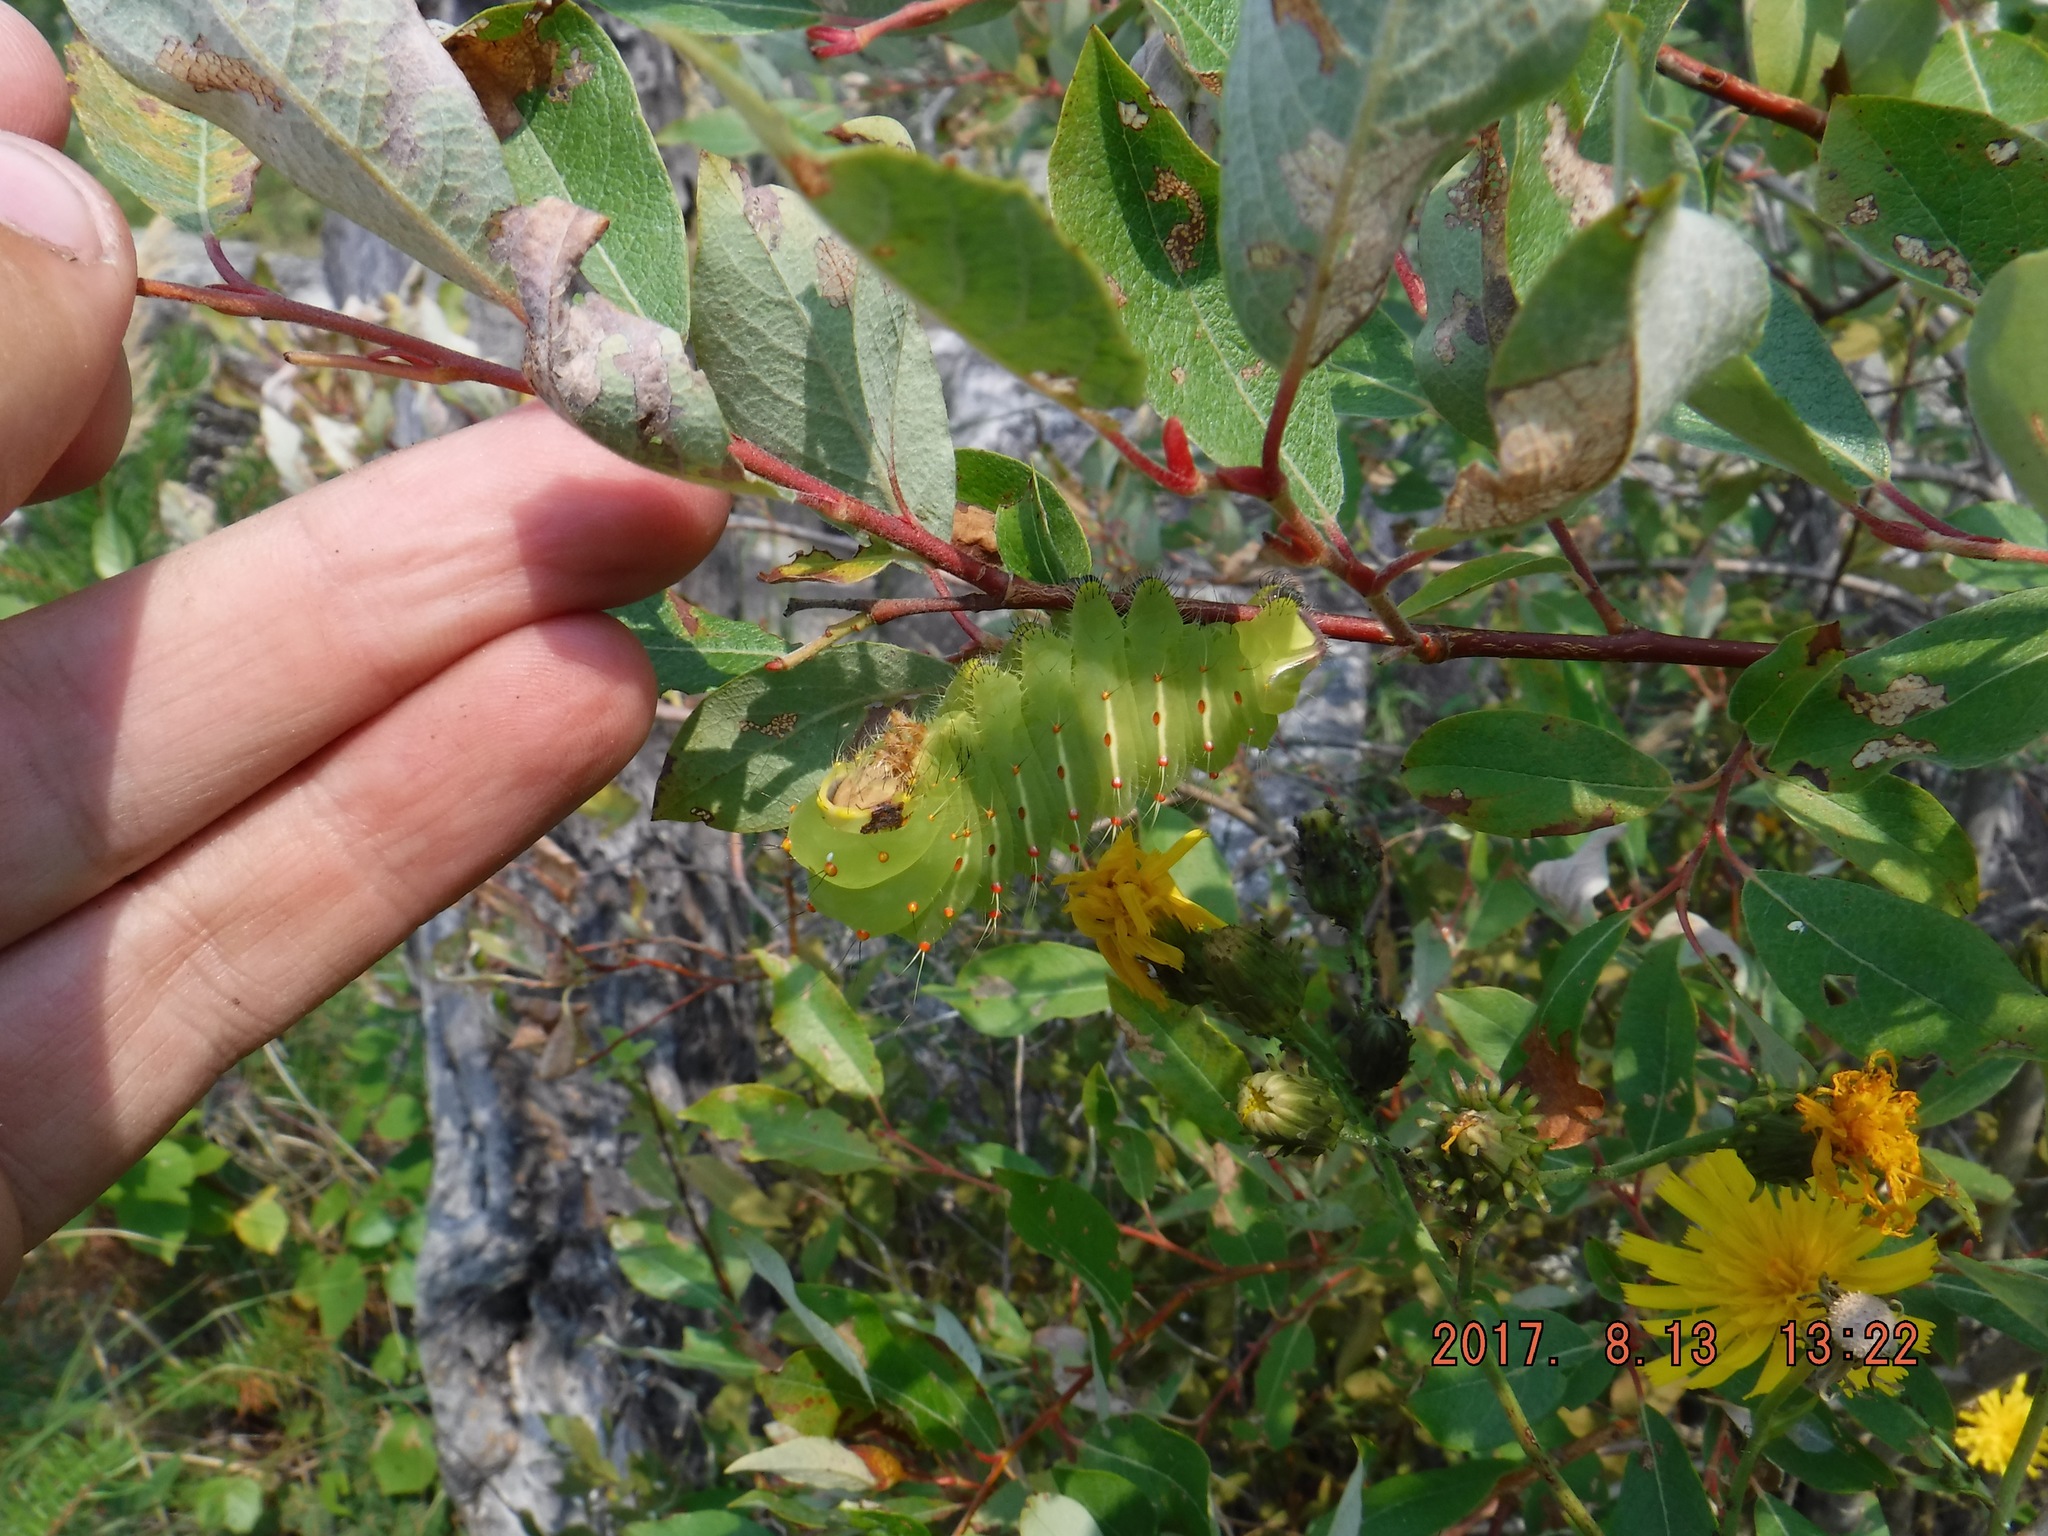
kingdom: Animalia
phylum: Arthropoda
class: Insecta
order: Lepidoptera
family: Saturniidae
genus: Antheraea
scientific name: Antheraea polyphemus
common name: Polyphemus moth
